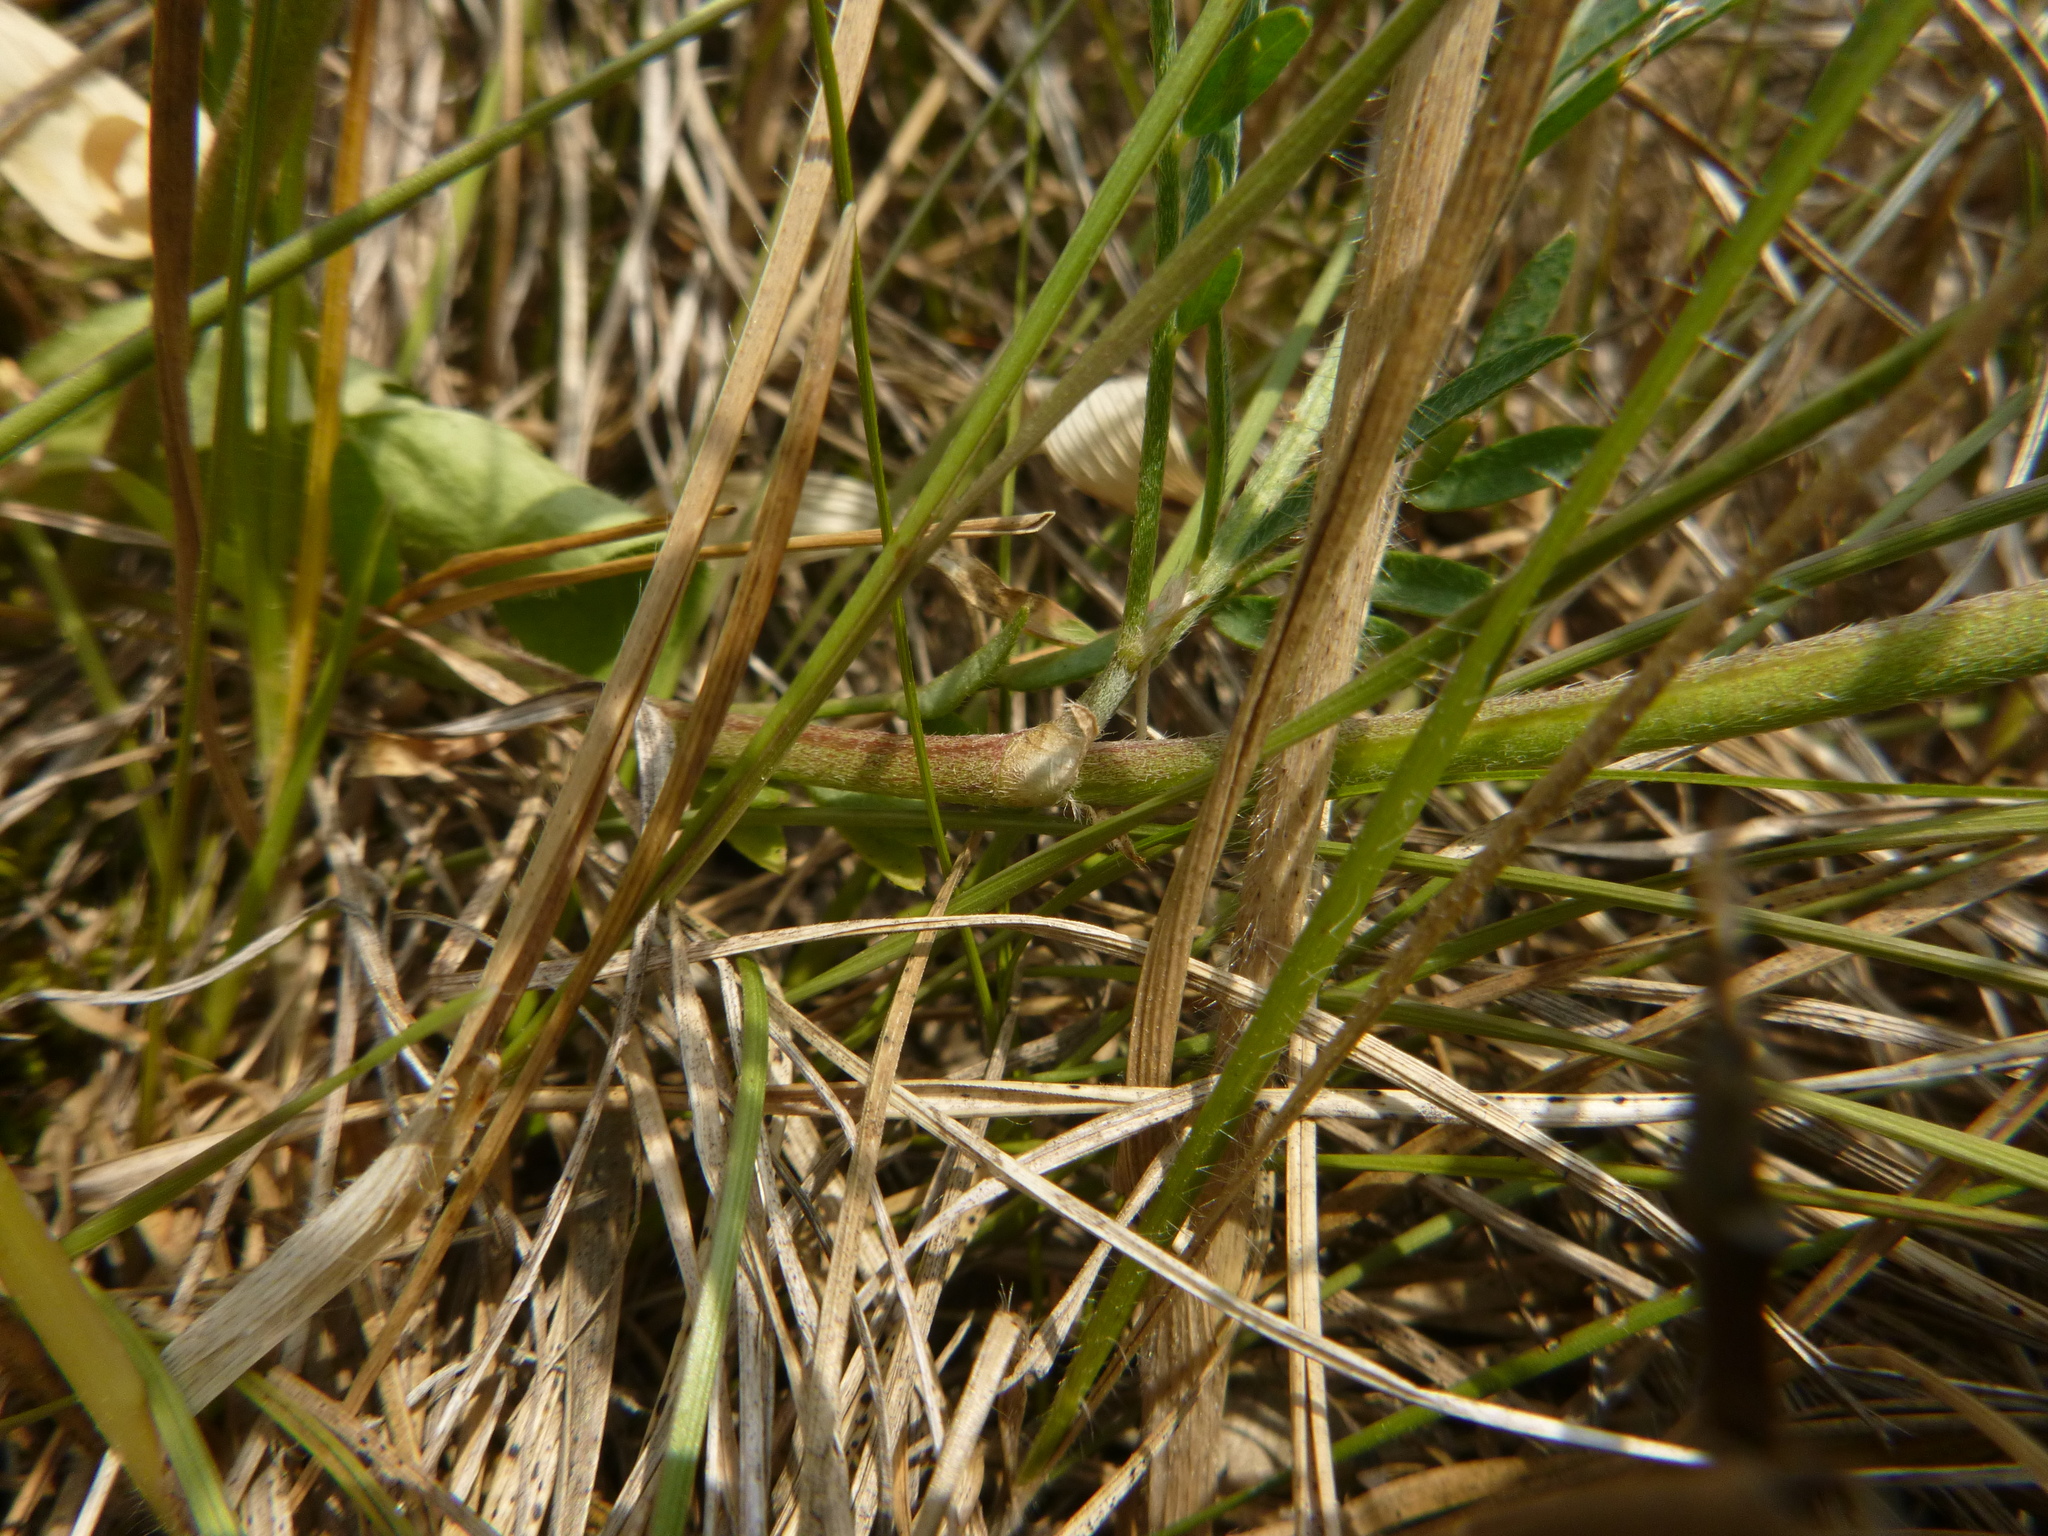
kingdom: Plantae
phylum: Tracheophyta
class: Magnoliopsida
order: Fabales
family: Fabaceae
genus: Astragalus
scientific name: Astragalus onobrychis
